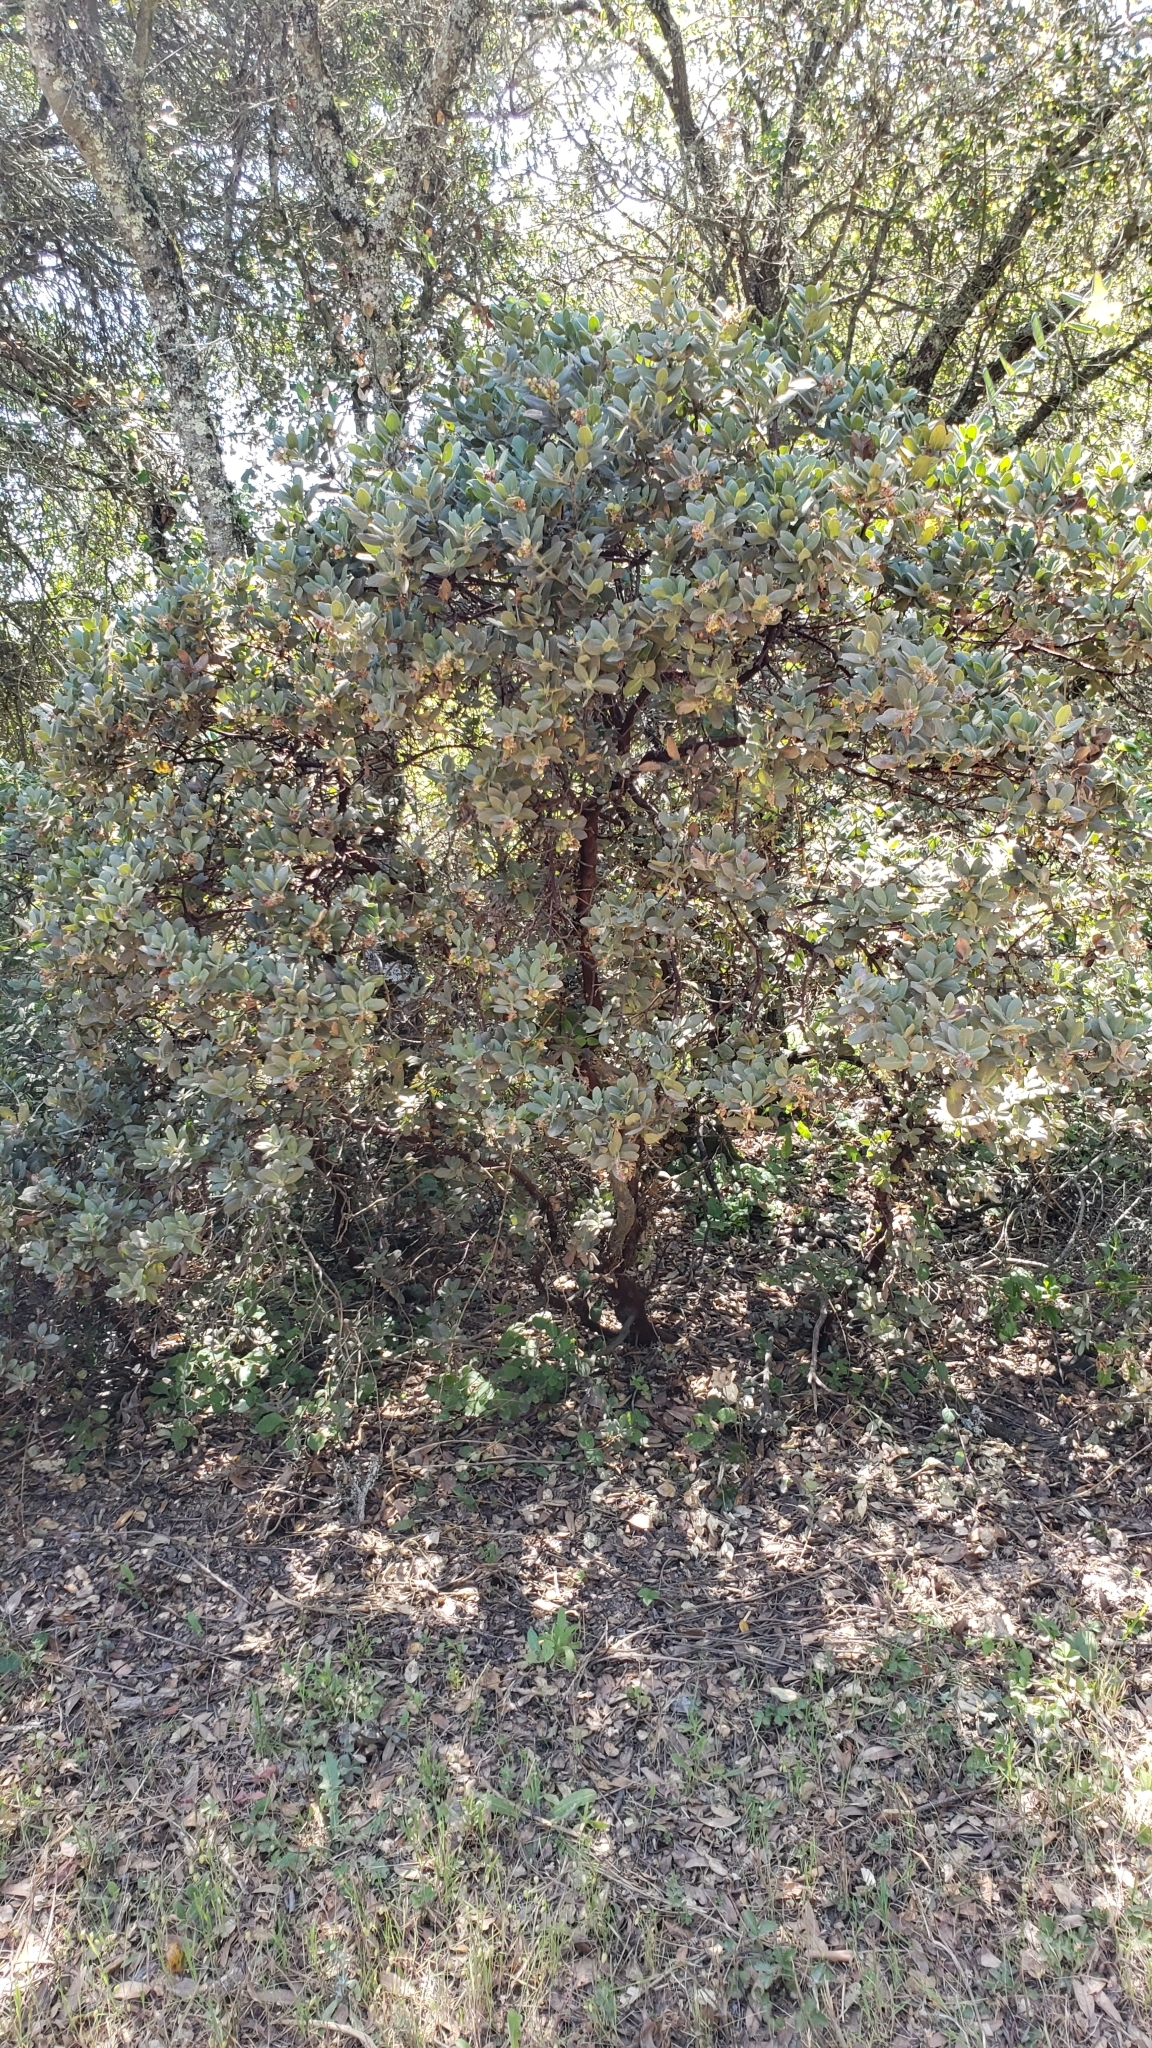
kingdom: Plantae
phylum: Tracheophyta
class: Magnoliopsida
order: Ericales
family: Ericaceae
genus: Arctostaphylos
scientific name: Arctostaphylos crustacea
